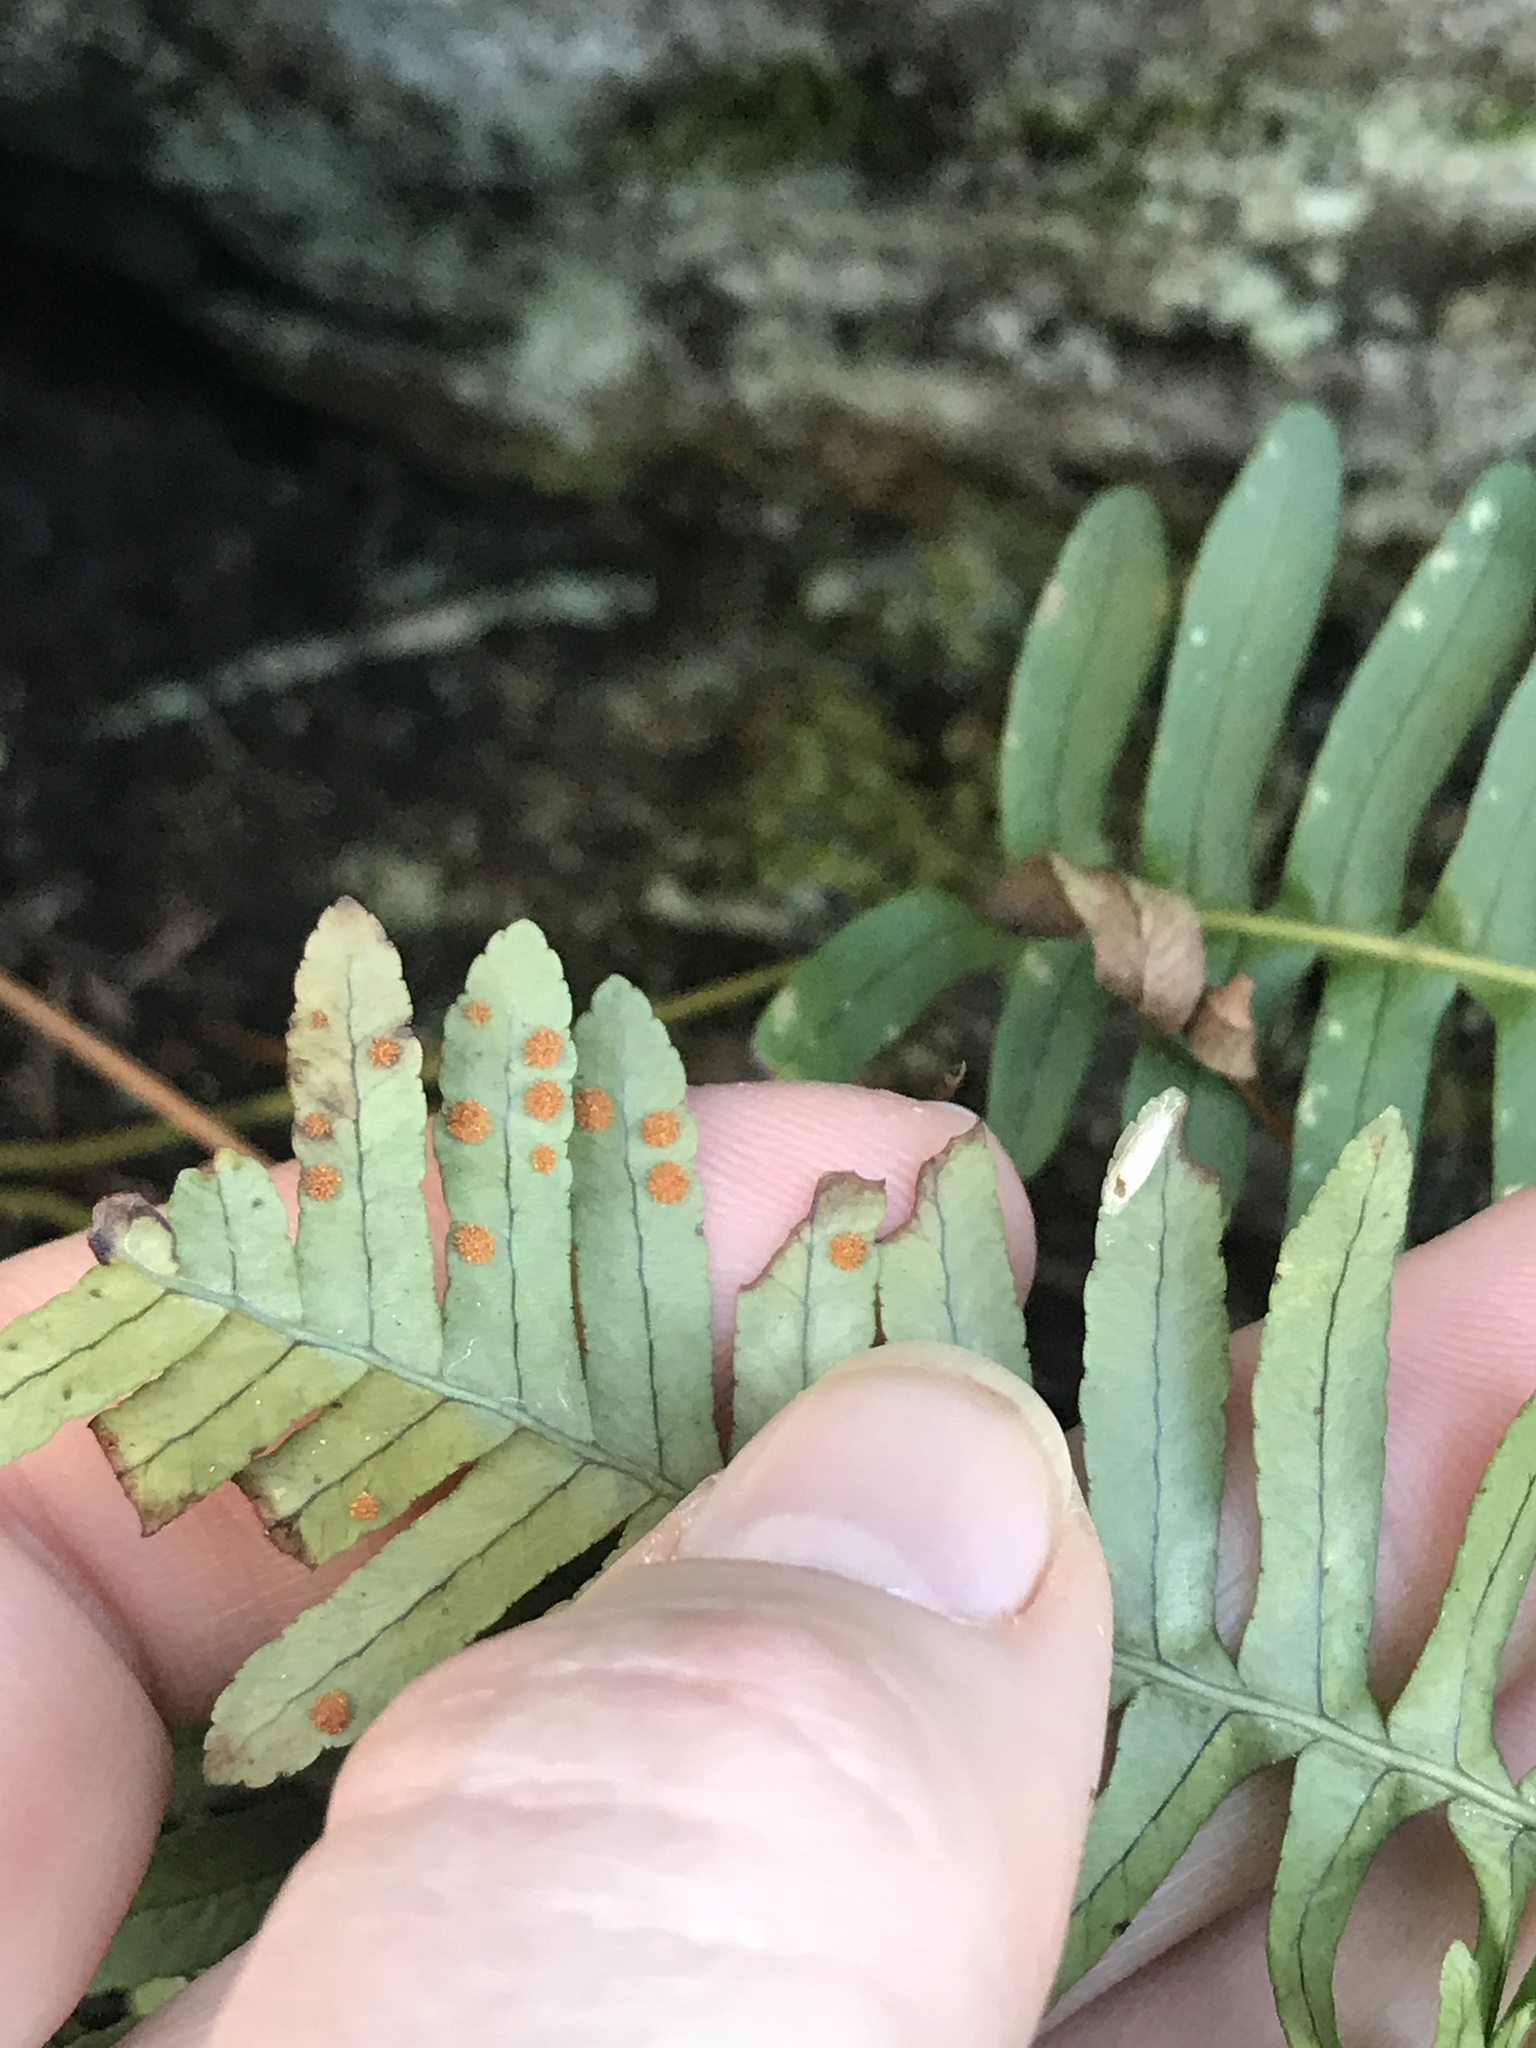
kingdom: Plantae
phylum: Tracheophyta
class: Polypodiopsida
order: Polypodiales
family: Polypodiaceae
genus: Polypodium
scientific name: Polypodium virginianum
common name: American wall fern
